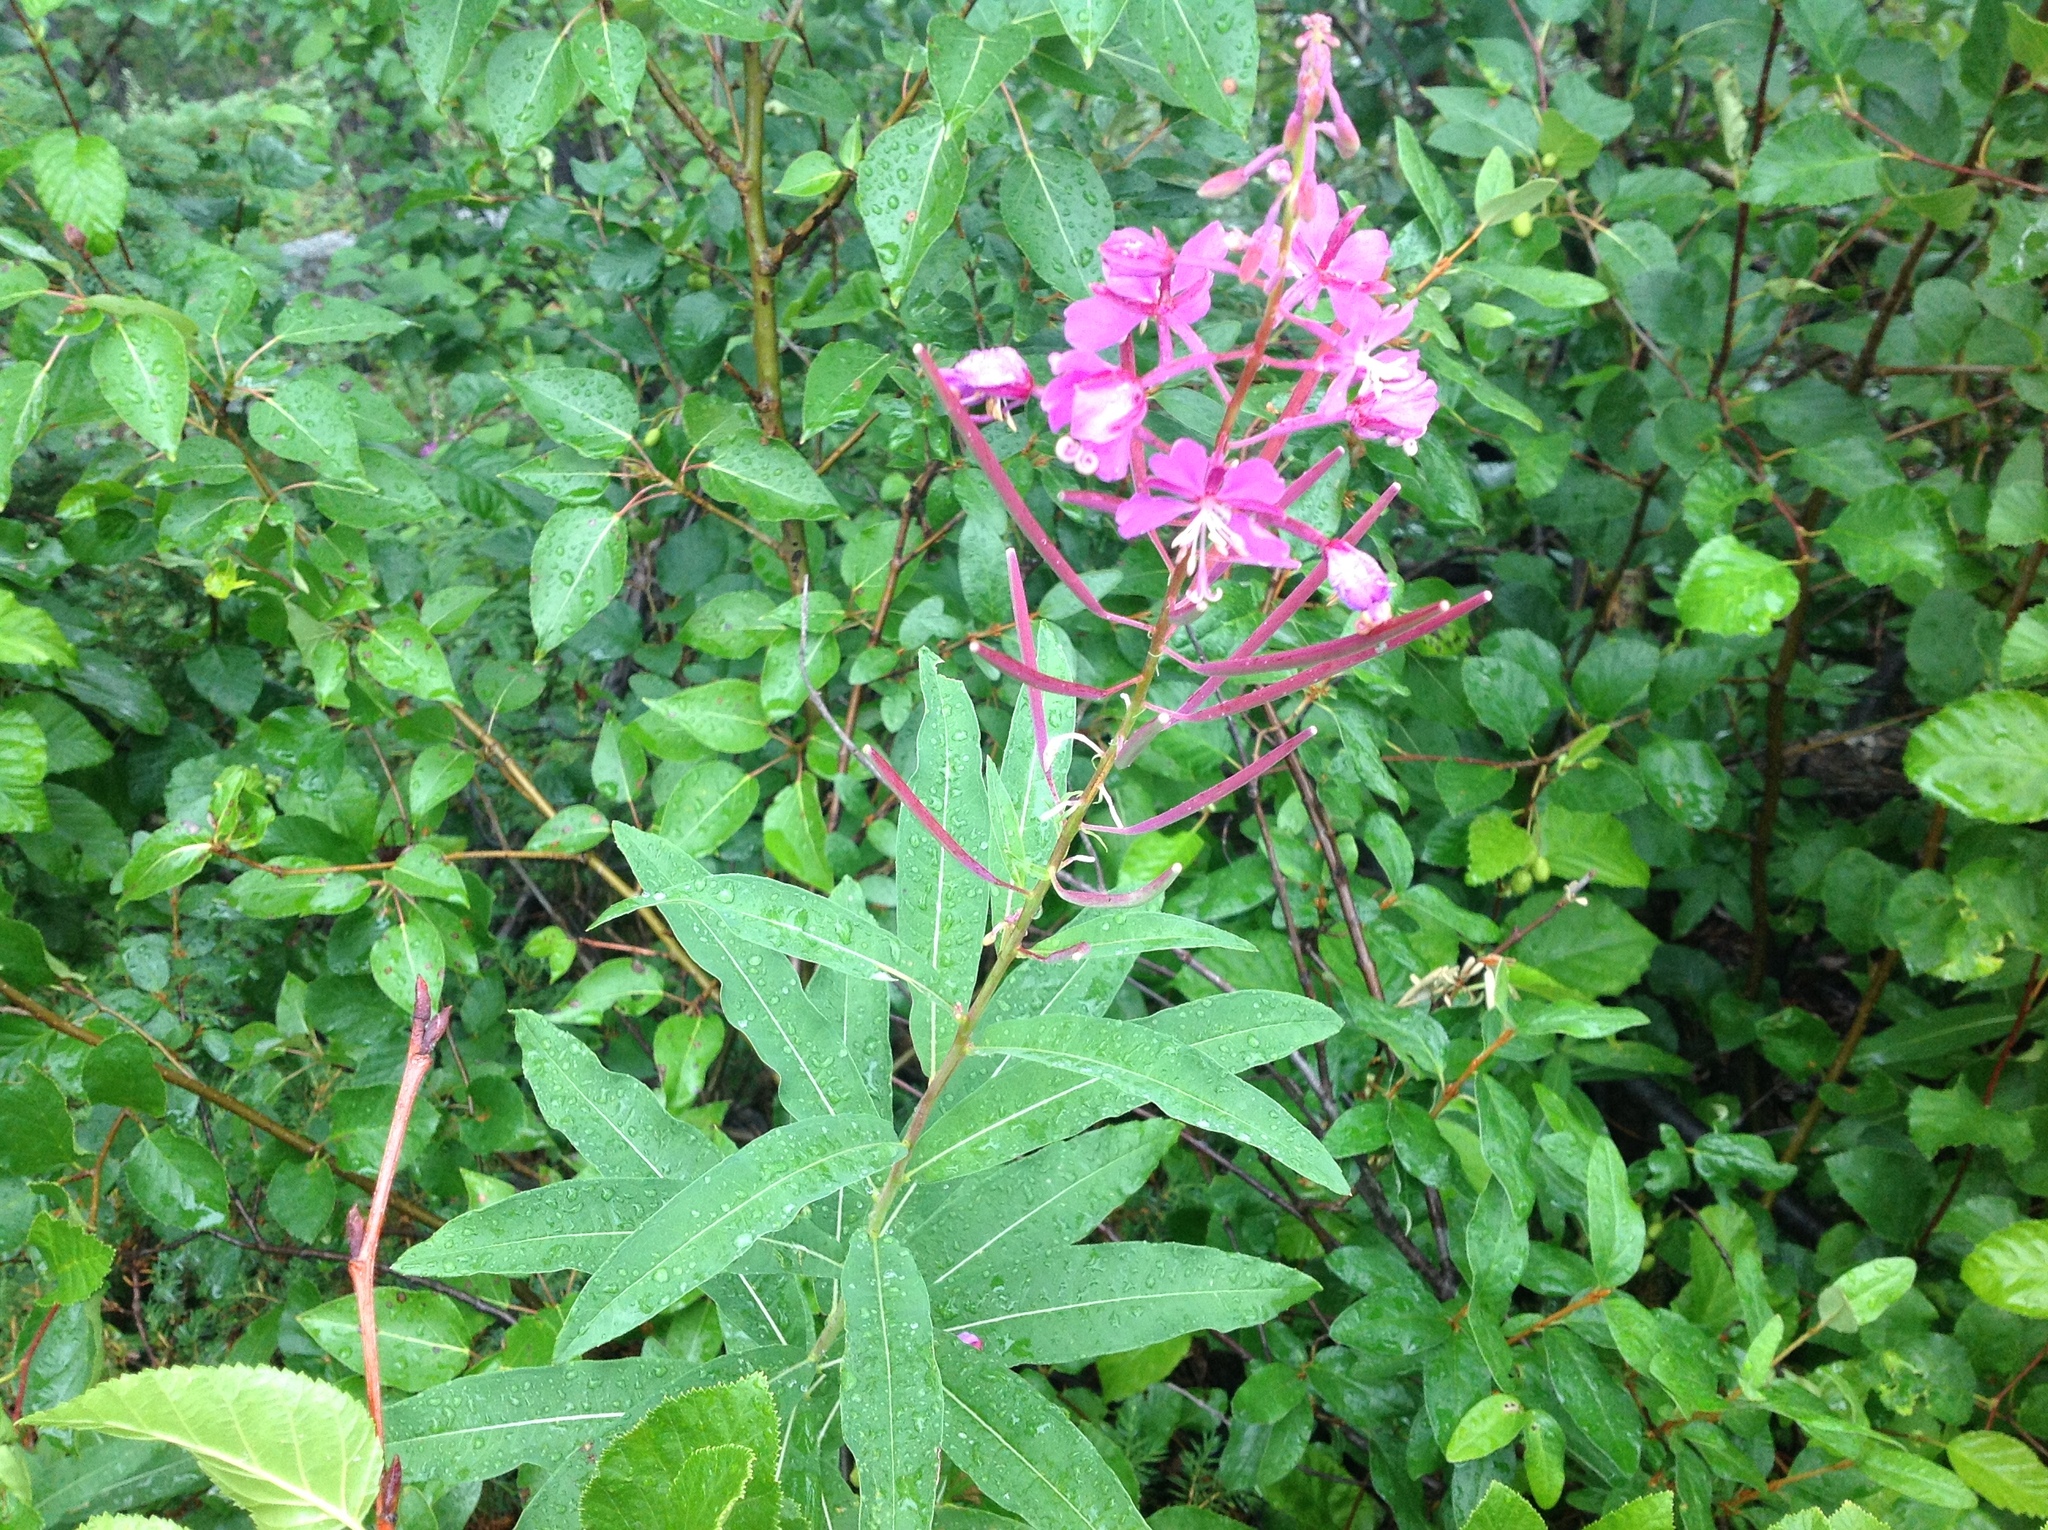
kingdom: Plantae
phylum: Tracheophyta
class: Magnoliopsida
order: Myrtales
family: Onagraceae
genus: Chamaenerion
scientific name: Chamaenerion angustifolium
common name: Fireweed
